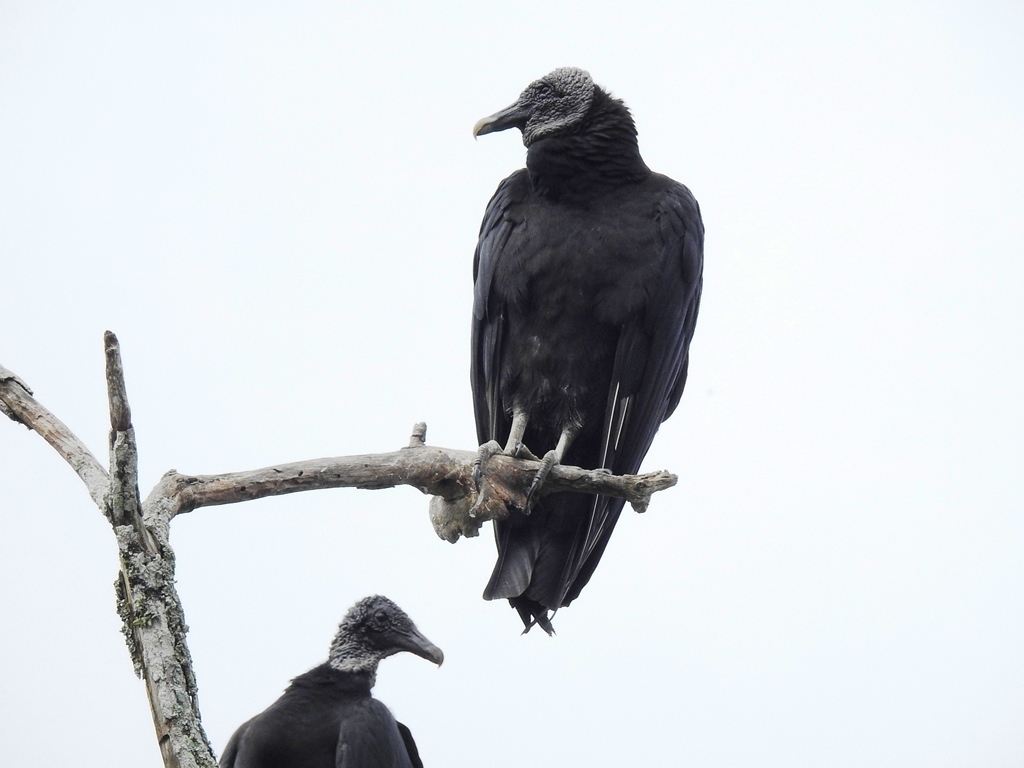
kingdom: Animalia
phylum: Chordata
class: Aves
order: Accipitriformes
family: Cathartidae
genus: Coragyps
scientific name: Coragyps atratus
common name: Black vulture
